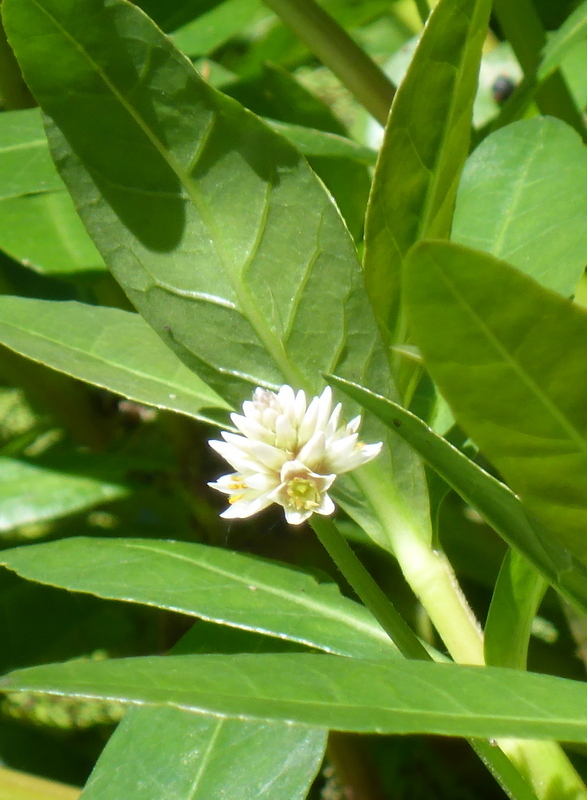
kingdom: Plantae
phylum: Tracheophyta
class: Magnoliopsida
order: Caryophyllales
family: Amaranthaceae
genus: Alternanthera
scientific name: Alternanthera philoxeroides
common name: Alligatorweed
